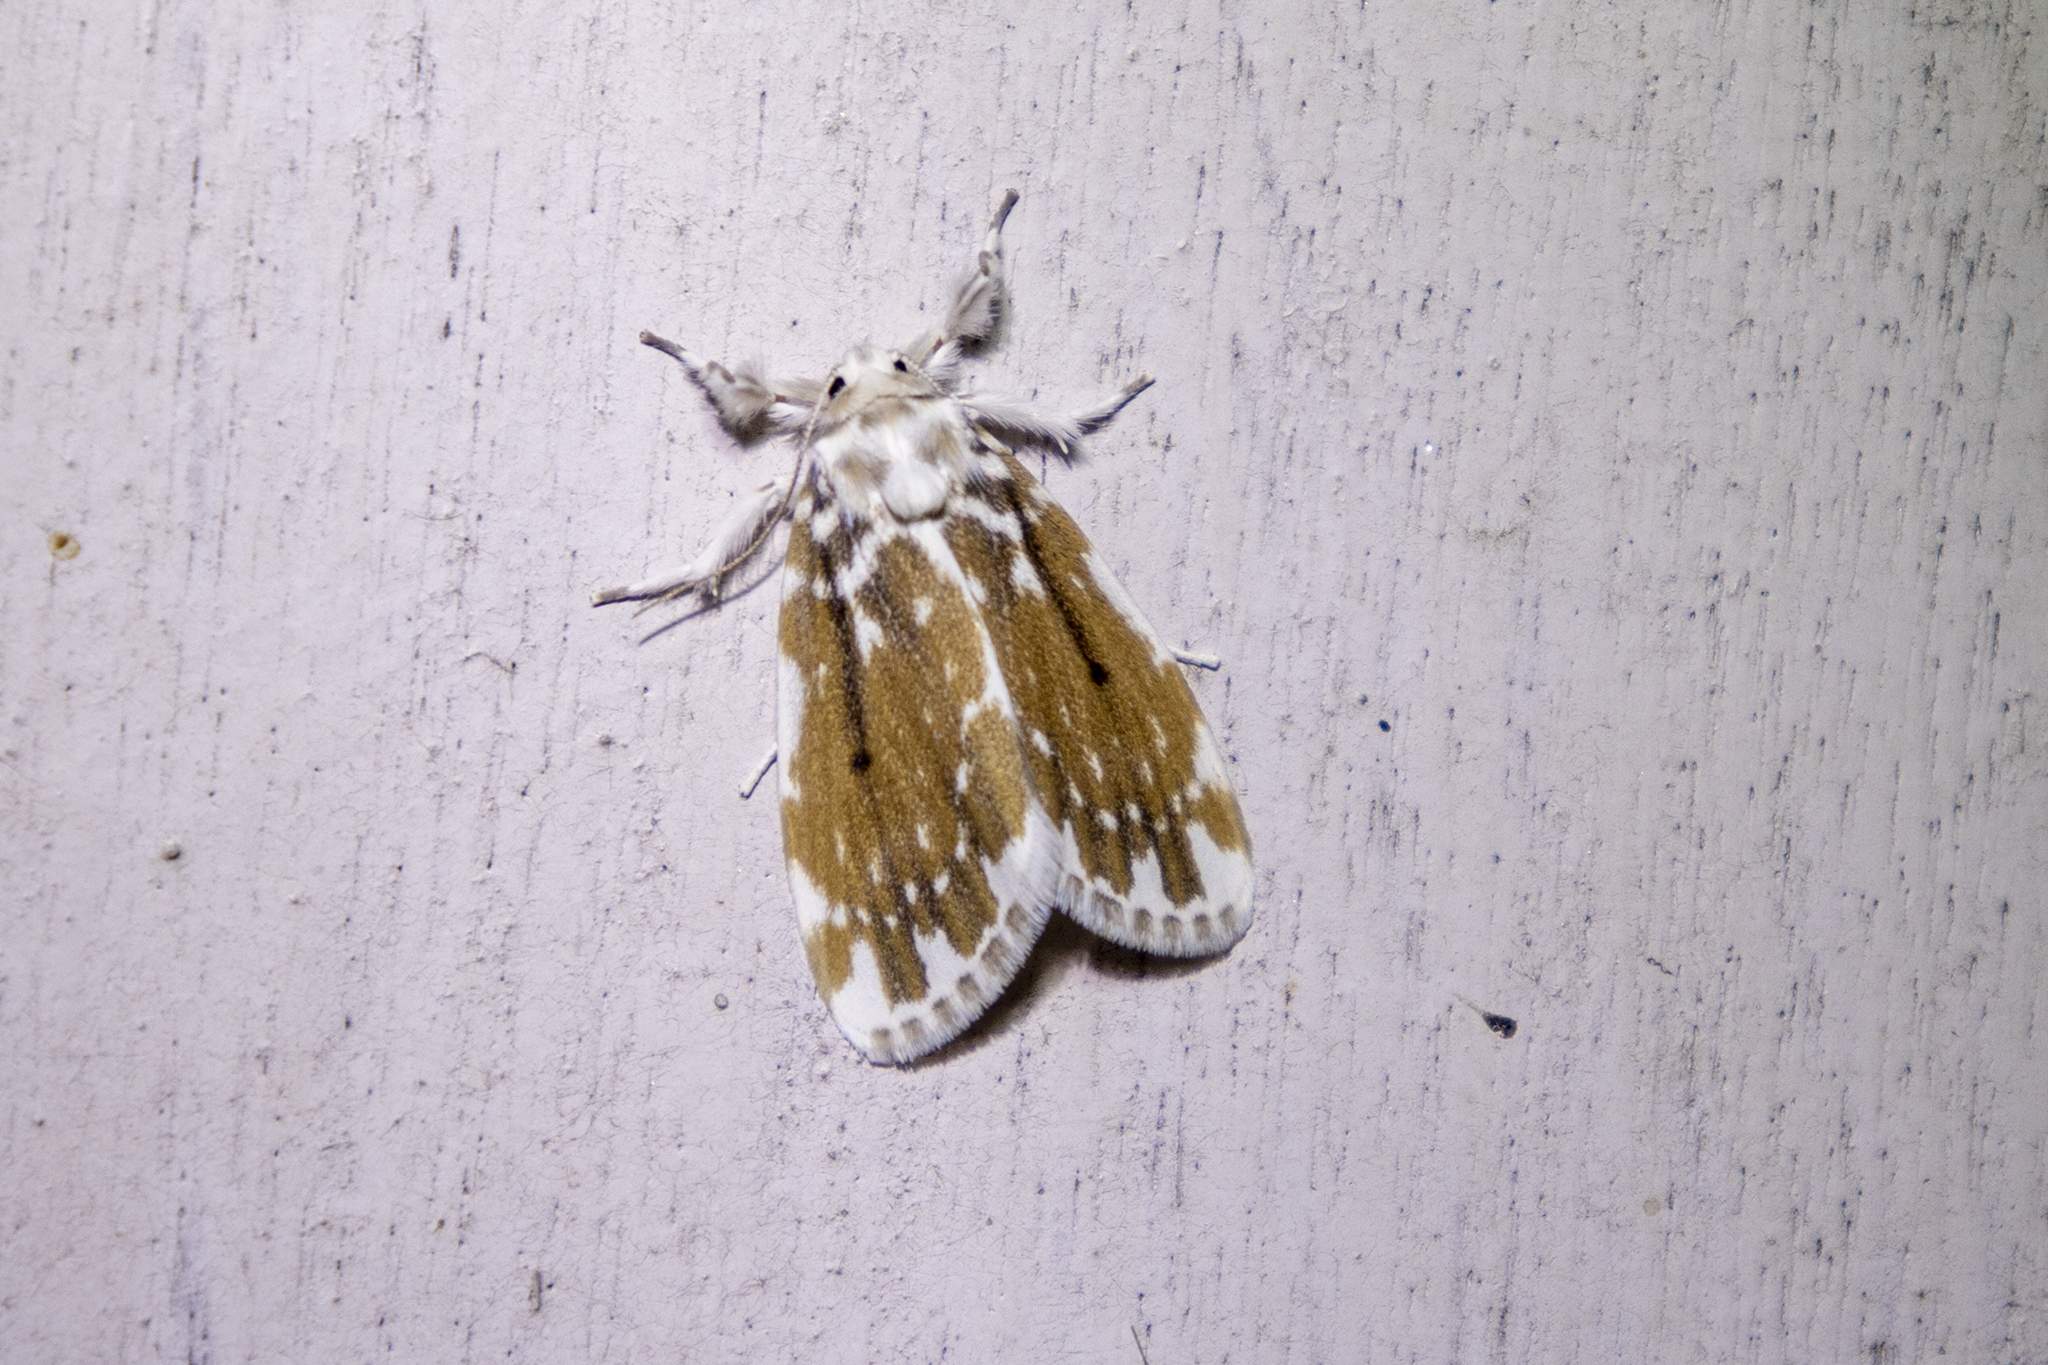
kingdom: Animalia
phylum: Arthropoda
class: Insecta
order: Lepidoptera
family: Erebidae
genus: Pseudoadites
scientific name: Pseudoadites frigida
